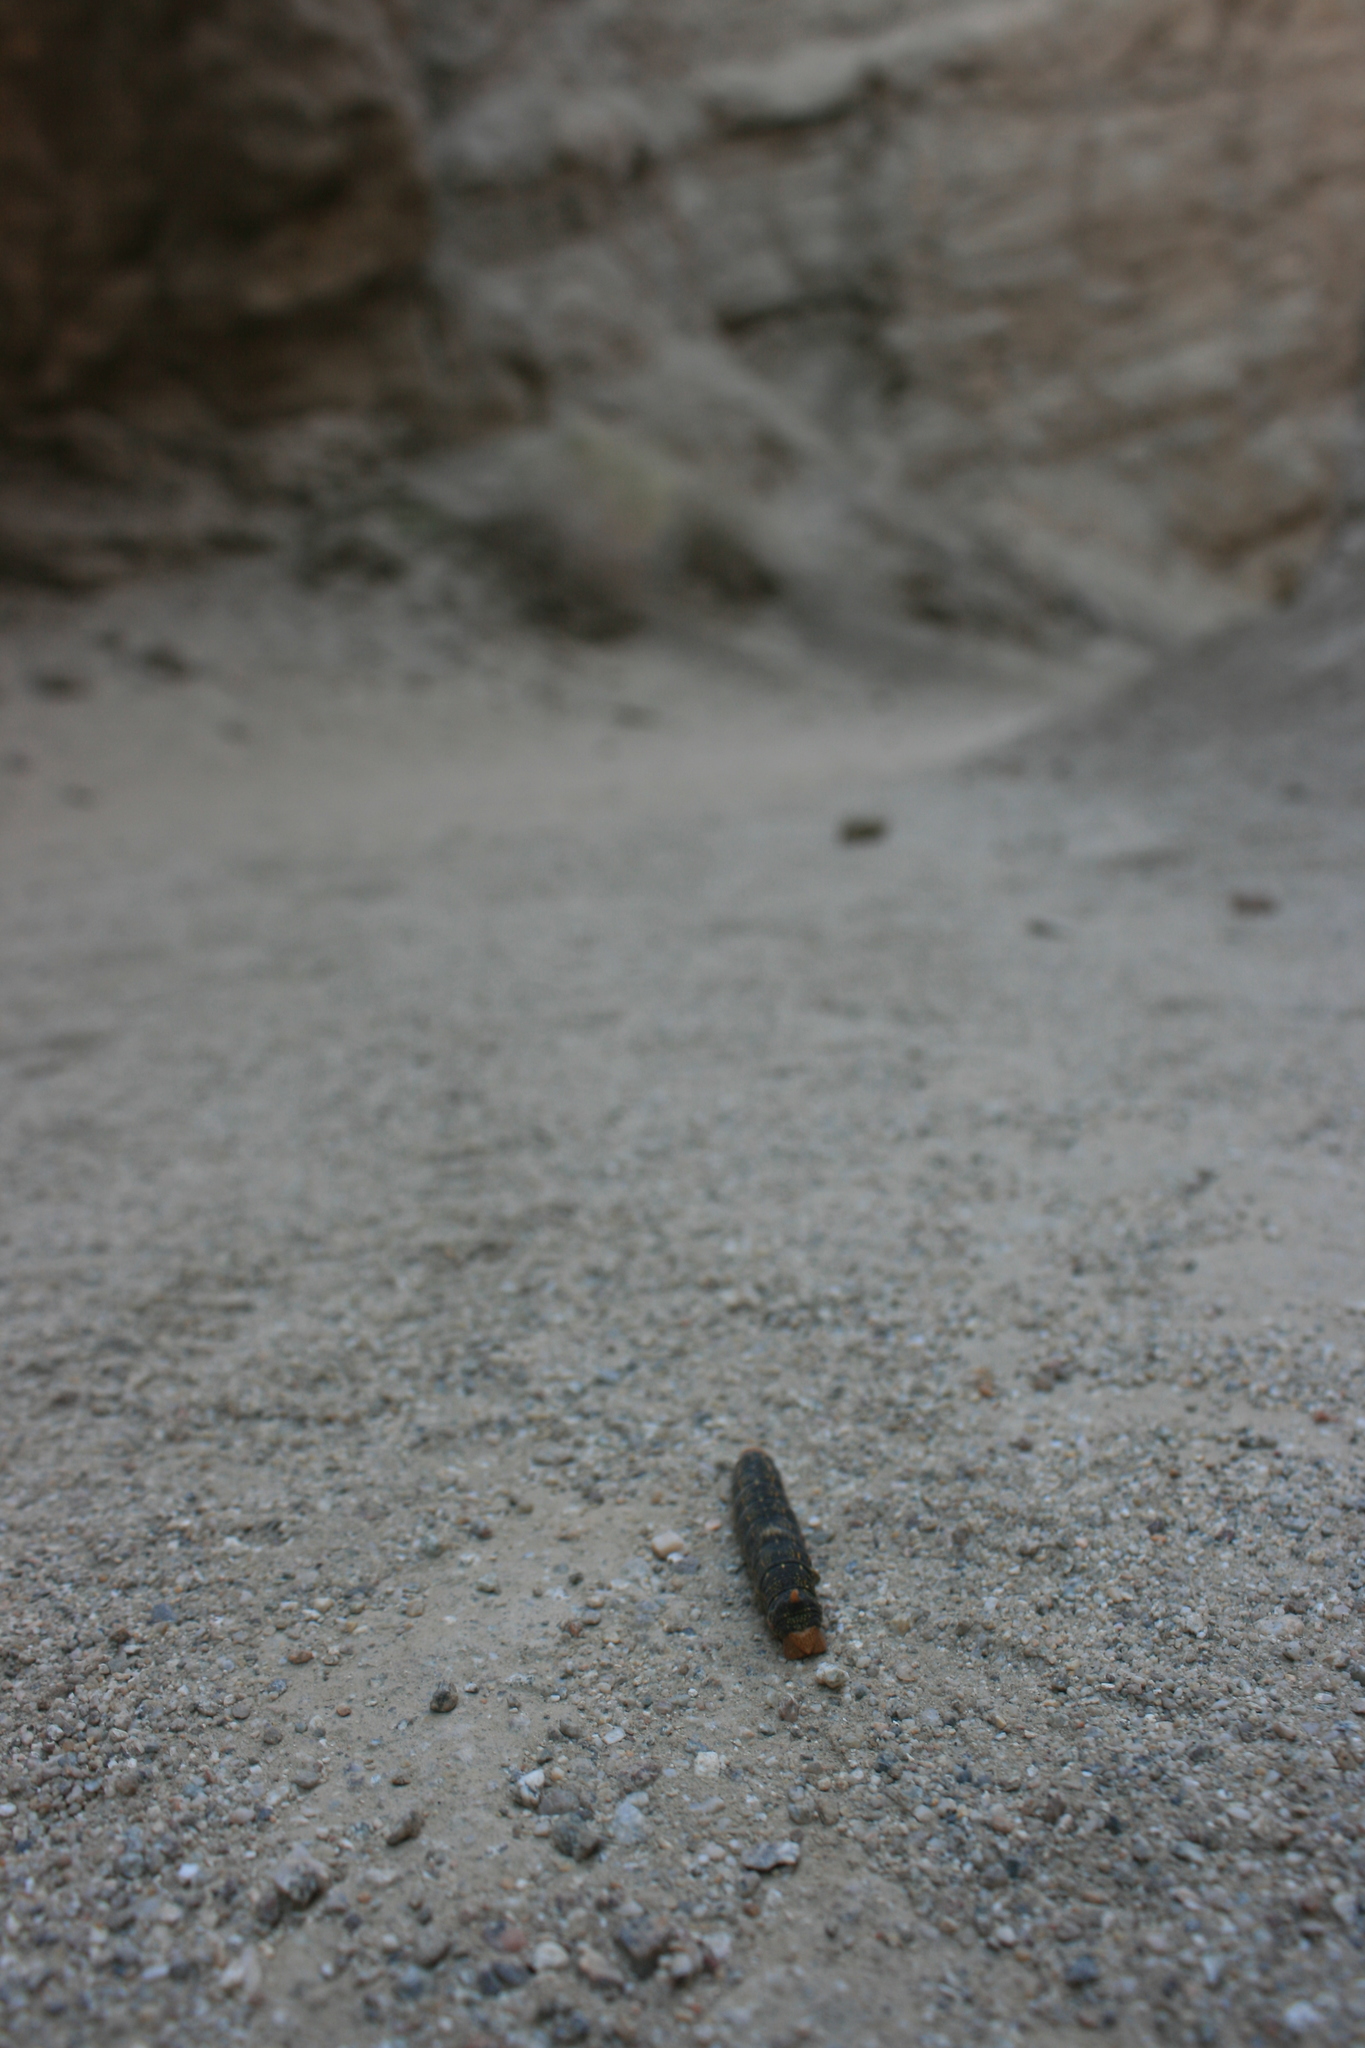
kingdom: Animalia
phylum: Arthropoda
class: Insecta
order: Lepidoptera
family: Sphingidae
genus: Hyles
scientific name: Hyles lineata
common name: White-lined sphinx
